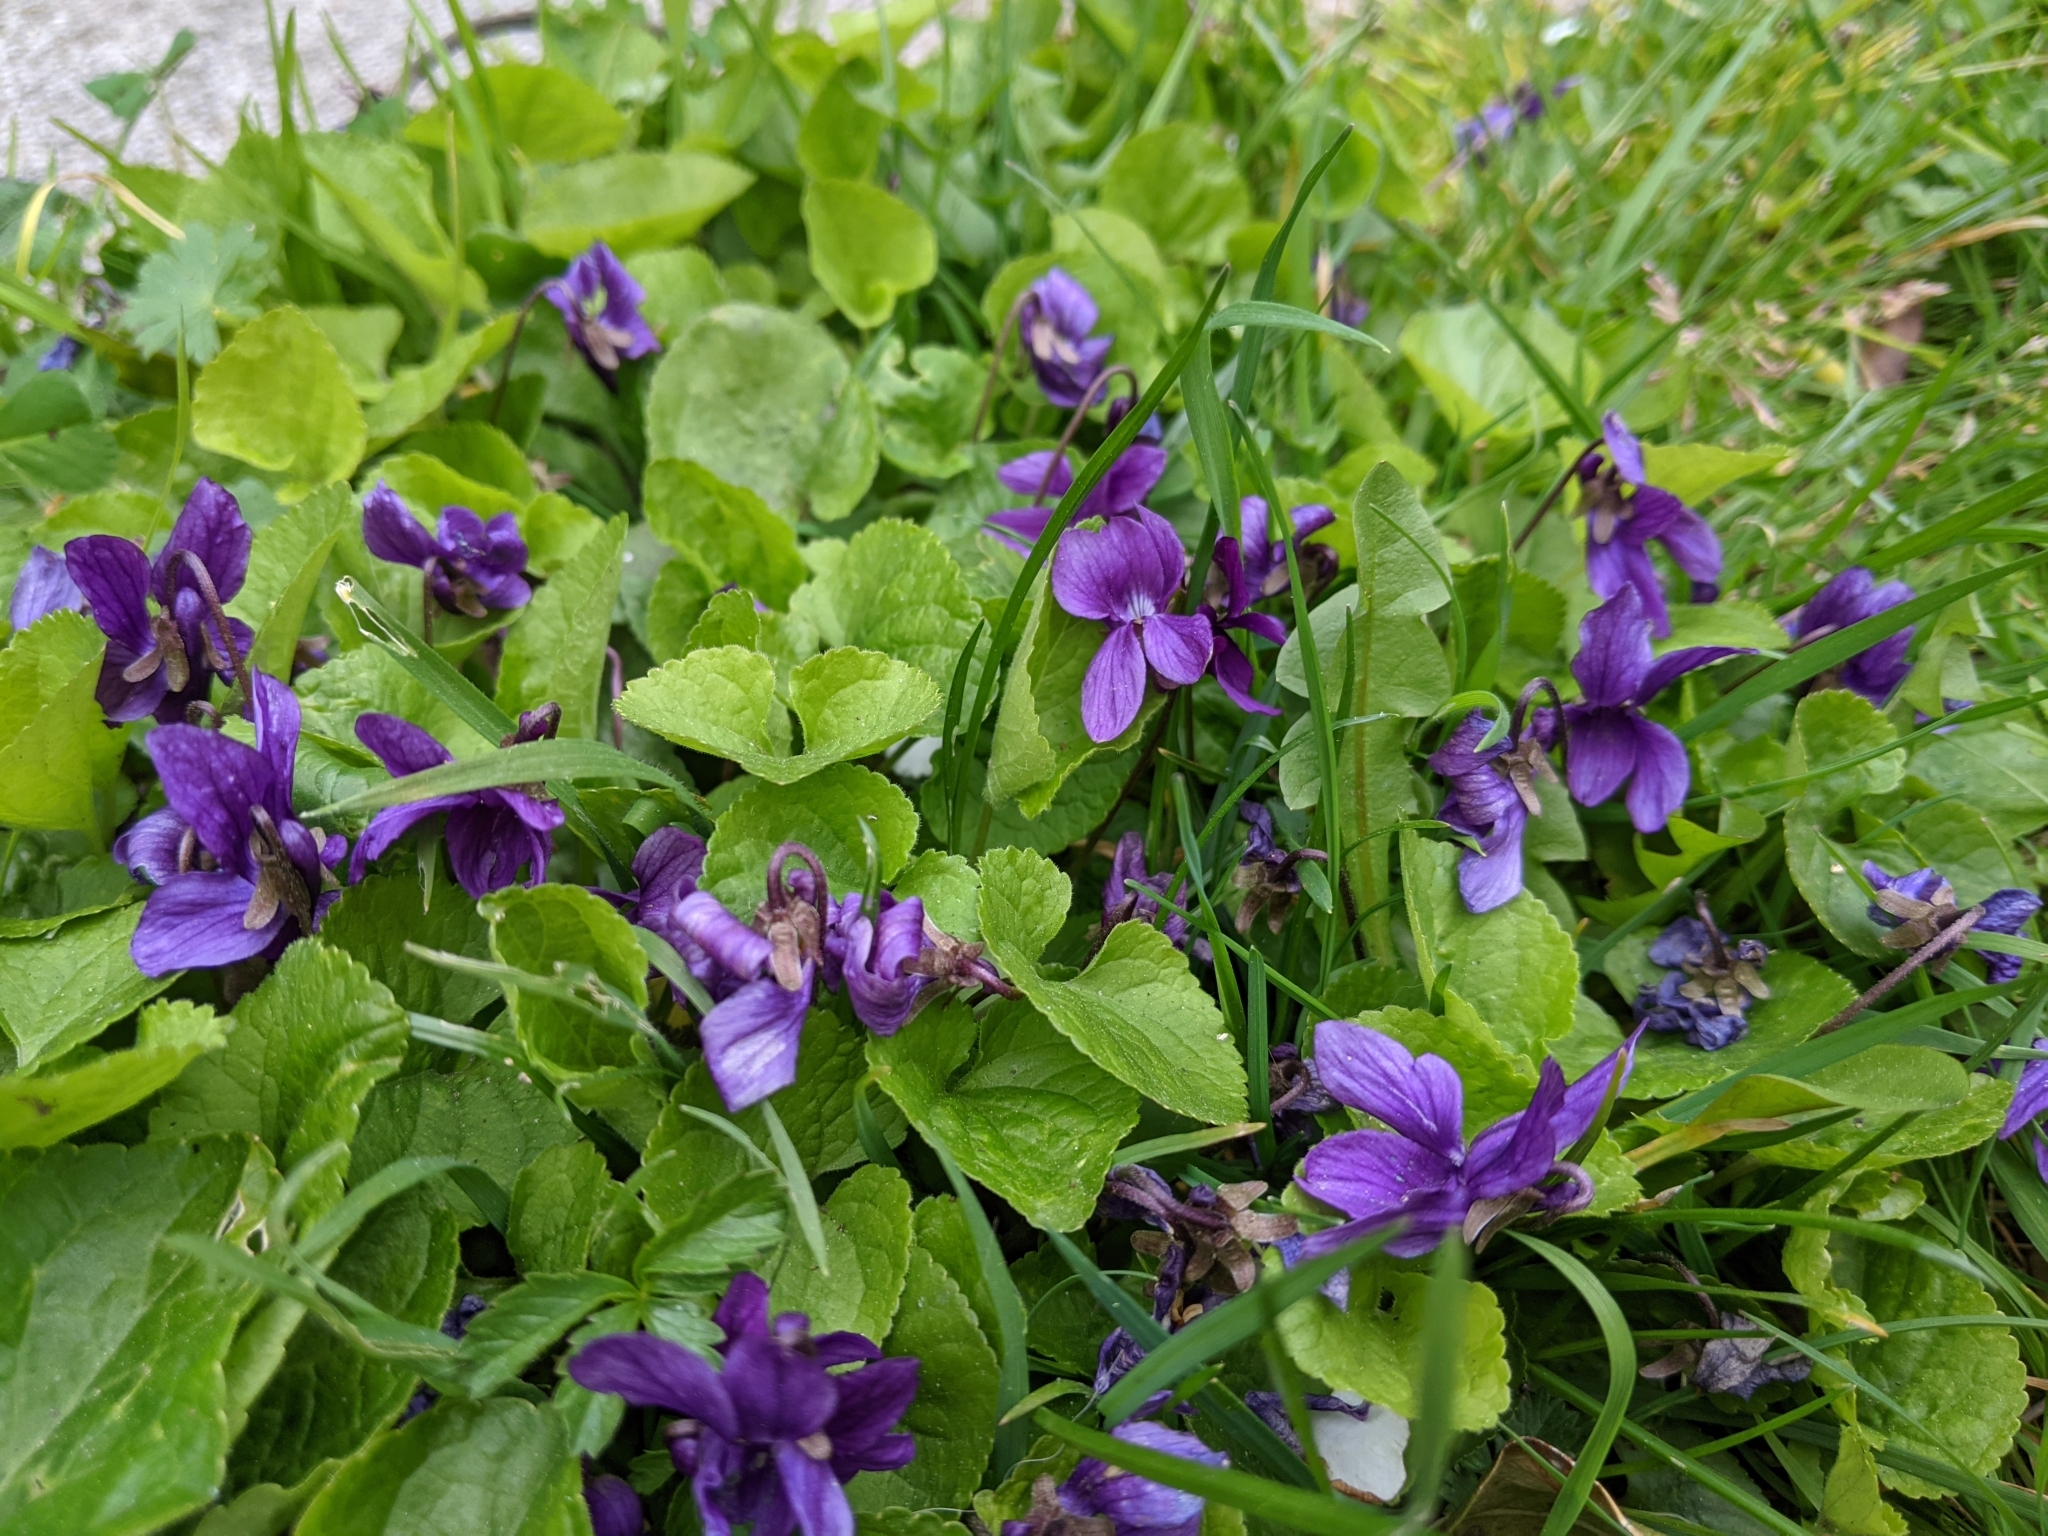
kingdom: Plantae
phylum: Tracheophyta
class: Magnoliopsida
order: Malpighiales
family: Violaceae
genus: Viola
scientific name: Viola odorata
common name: Sweet violet
